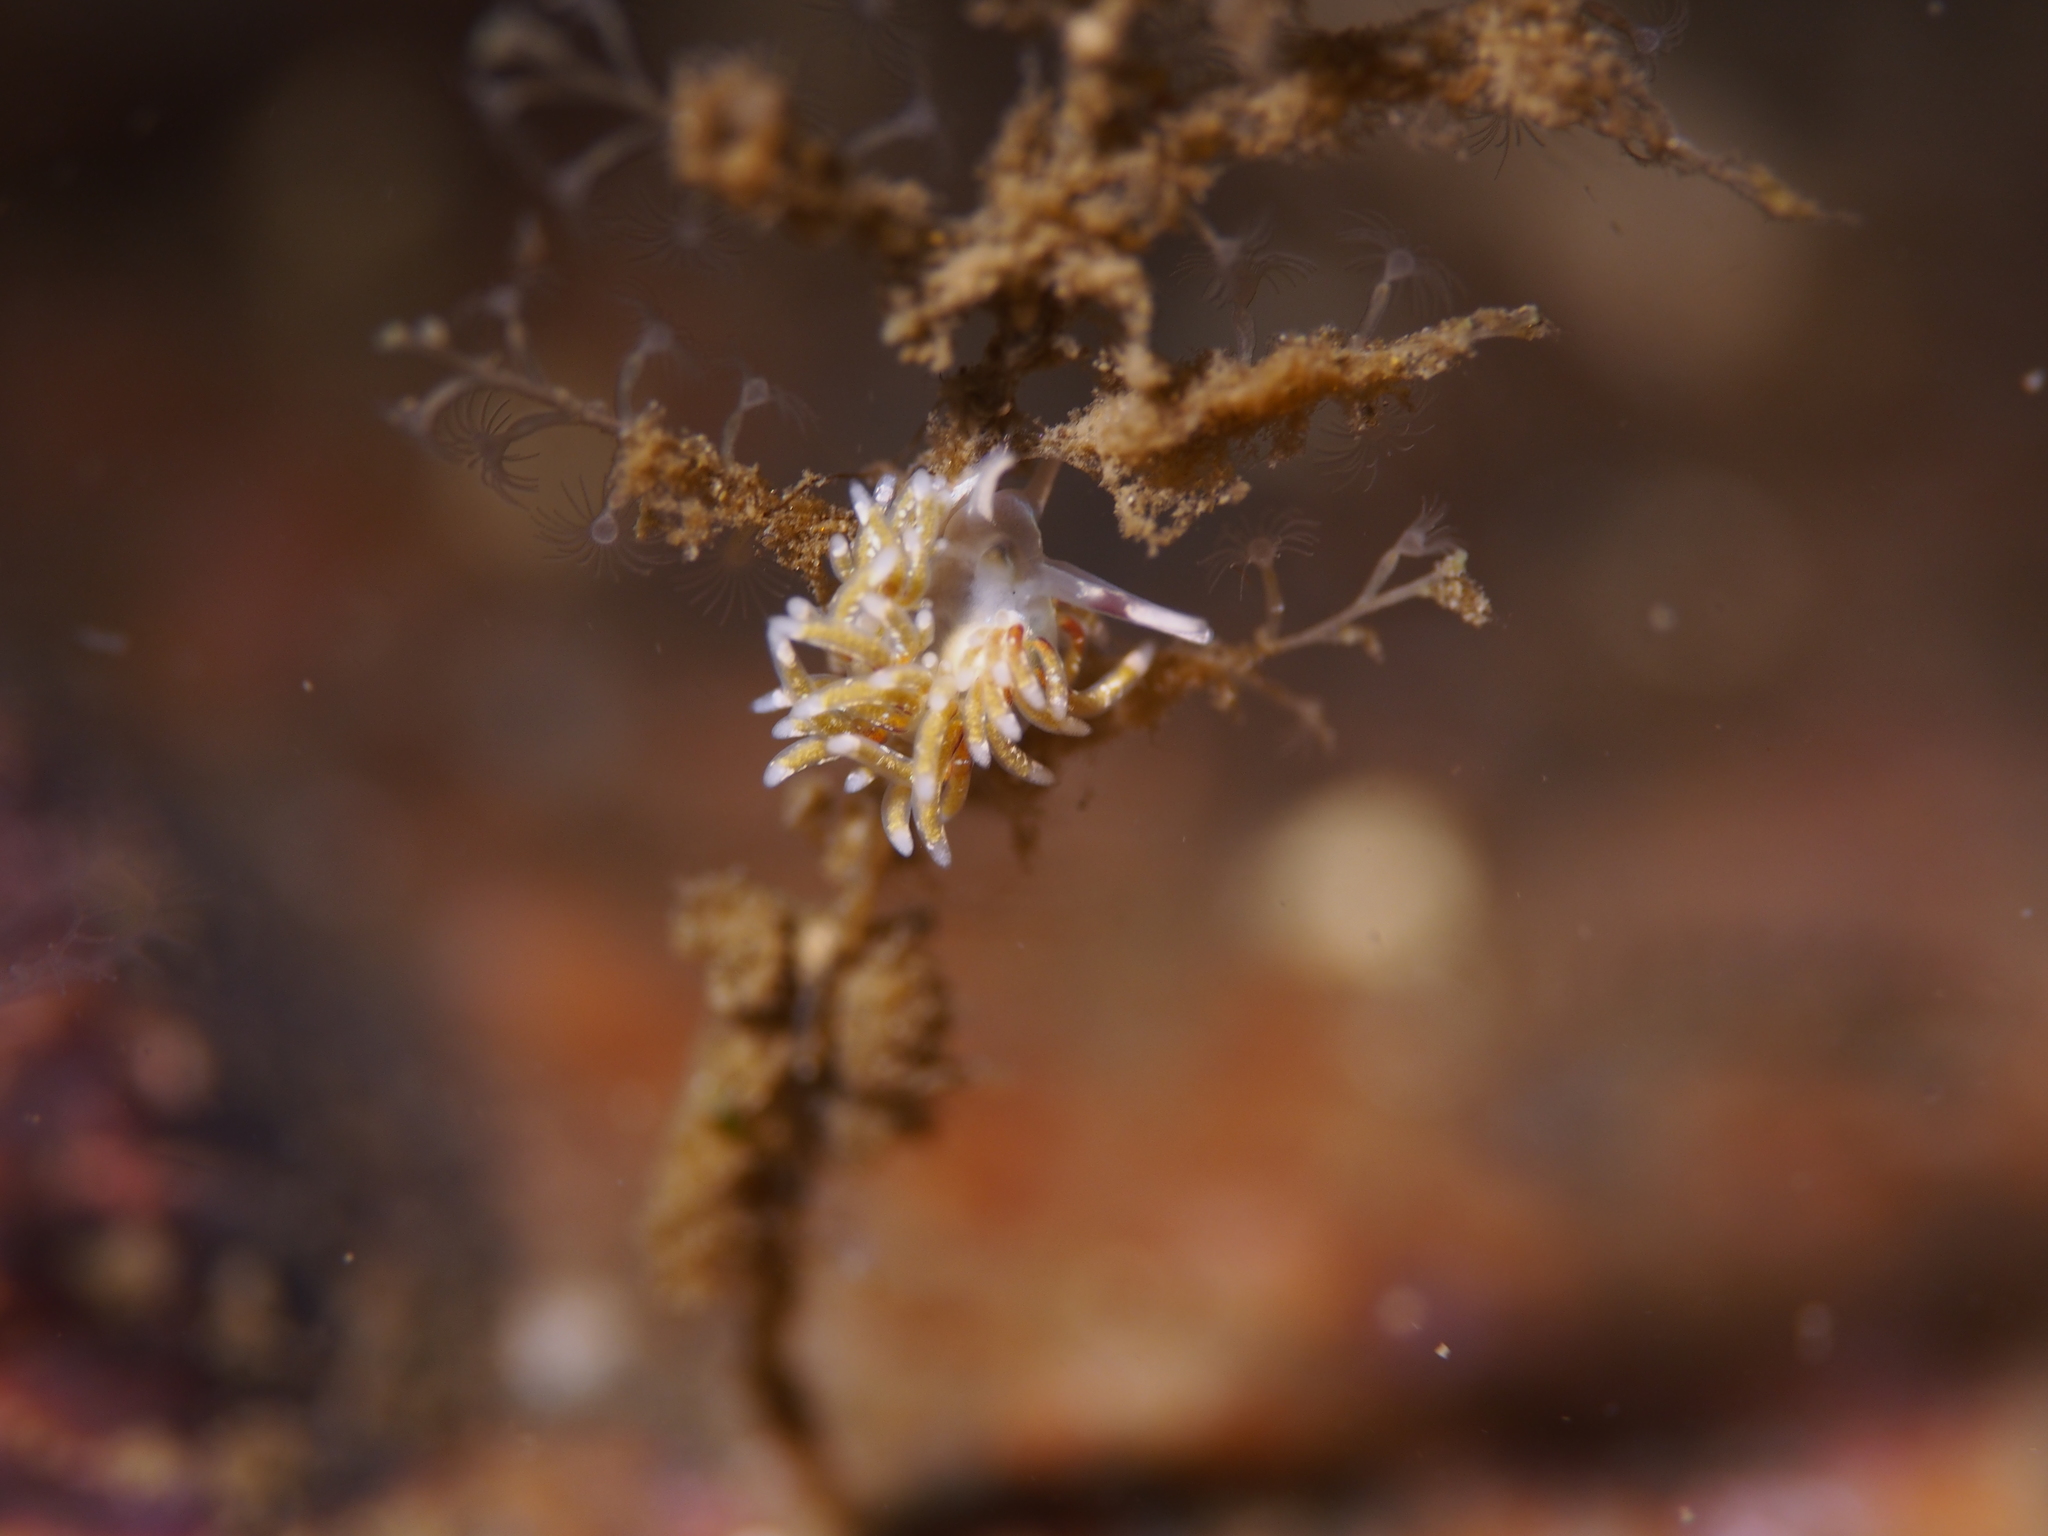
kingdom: Animalia
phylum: Mollusca
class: Gastropoda
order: Nudibranchia
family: Trinchesiidae
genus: Rubramoena
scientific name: Rubramoena rubescens
